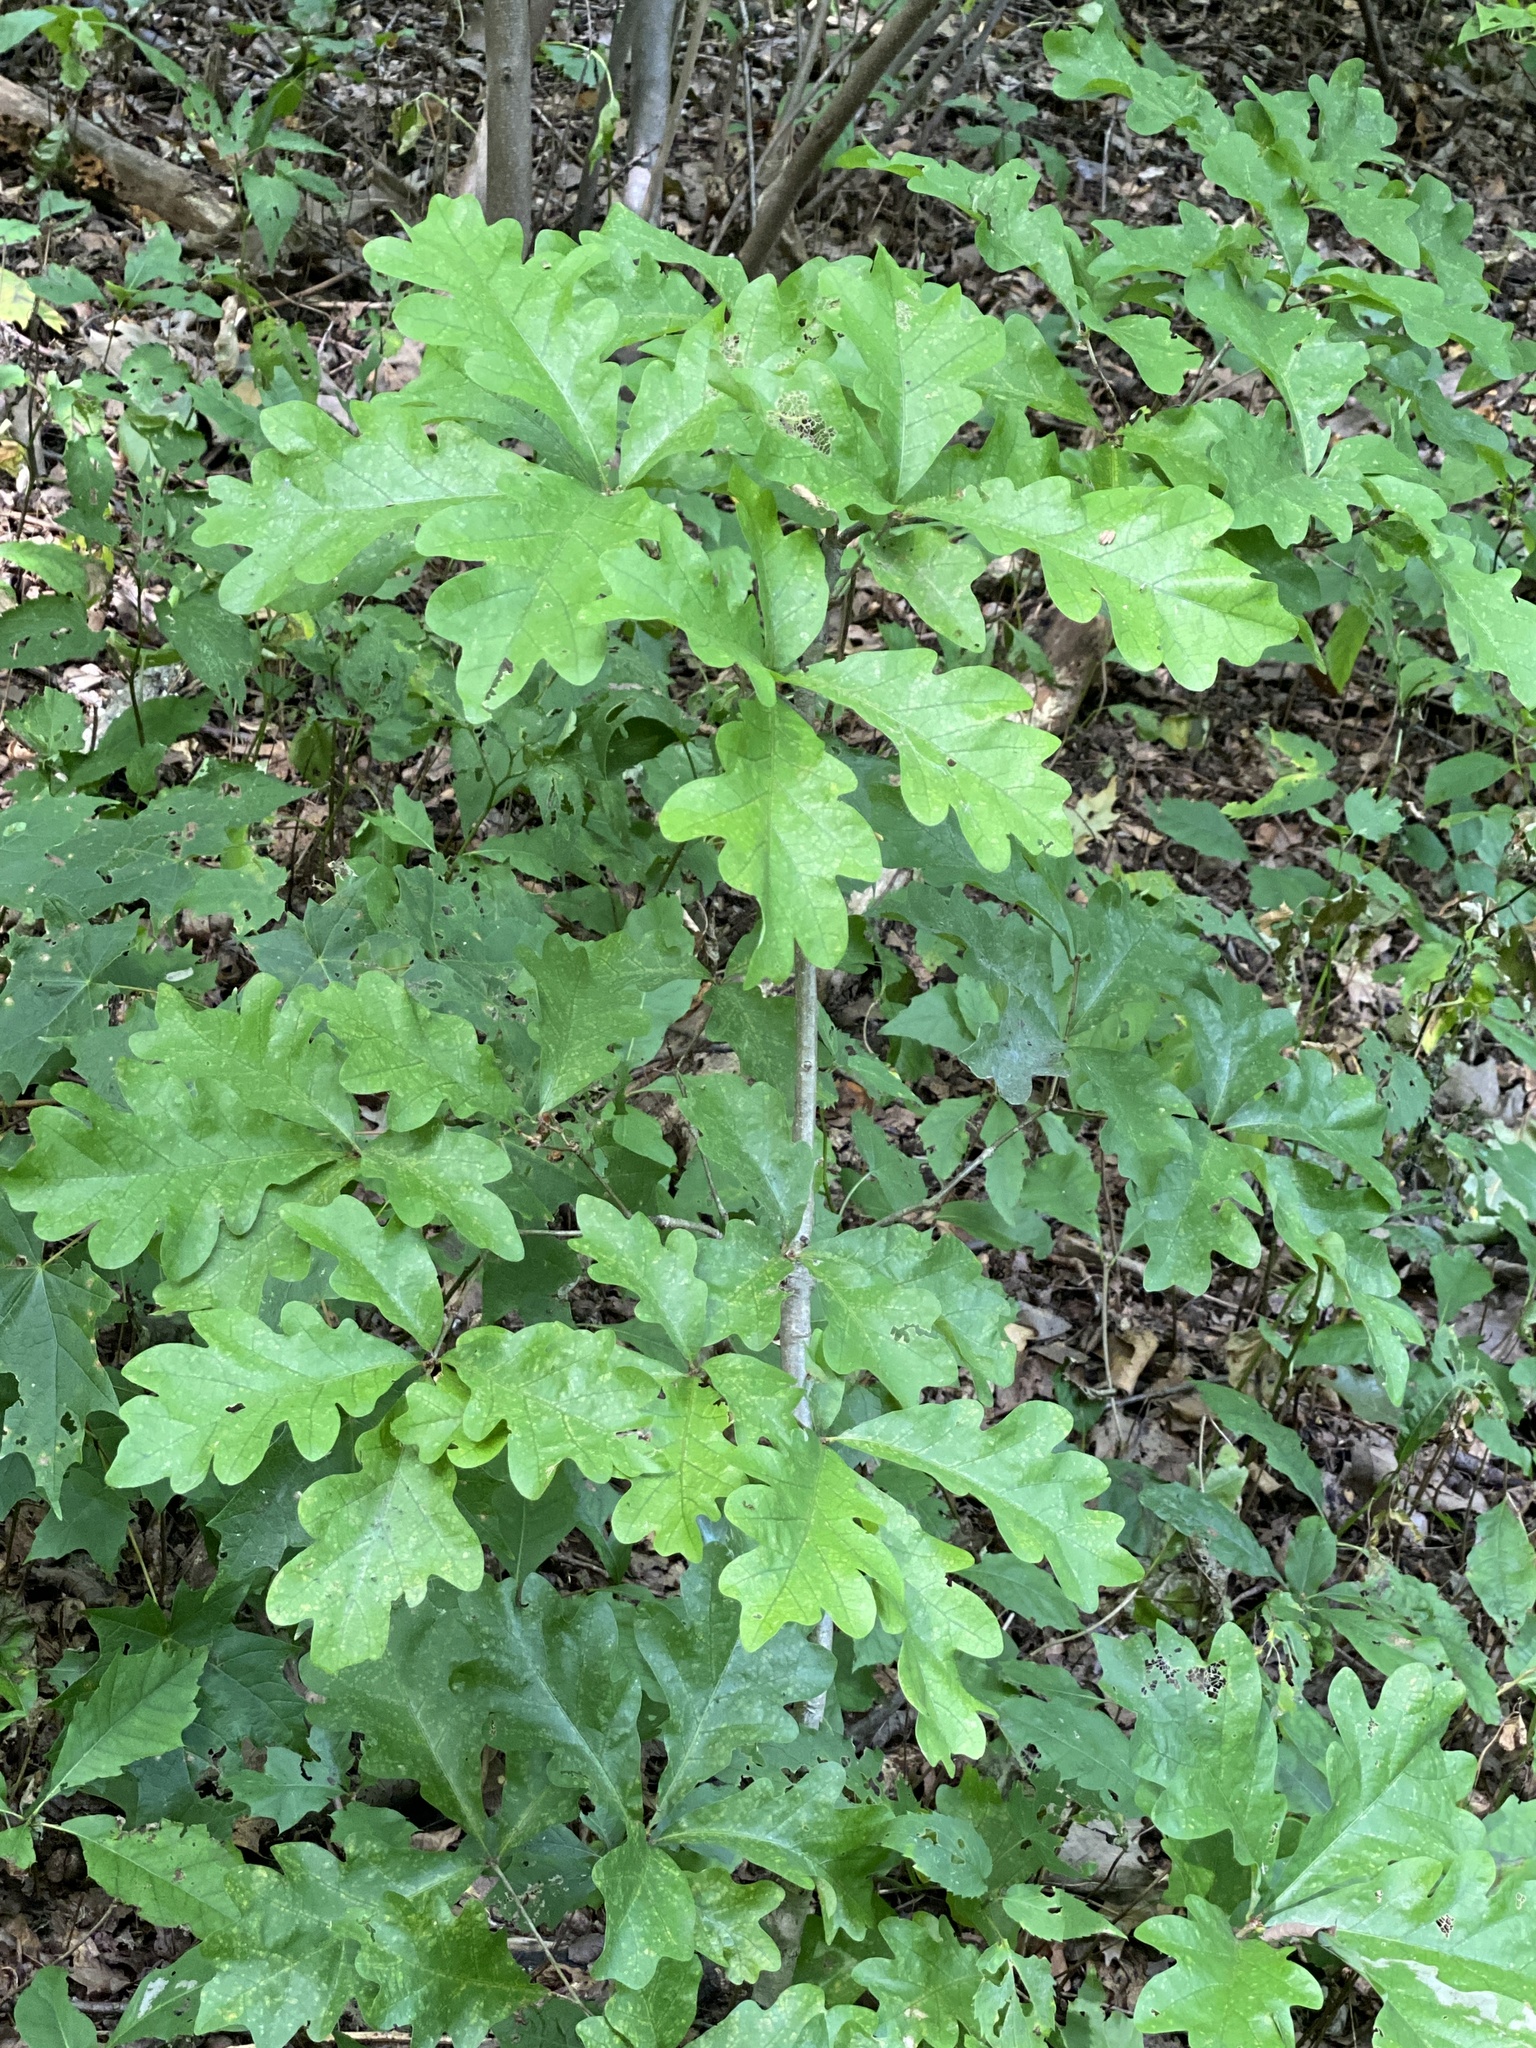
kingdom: Plantae
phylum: Tracheophyta
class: Magnoliopsida
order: Fagales
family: Fagaceae
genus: Quercus
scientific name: Quercus alba
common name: White oak
